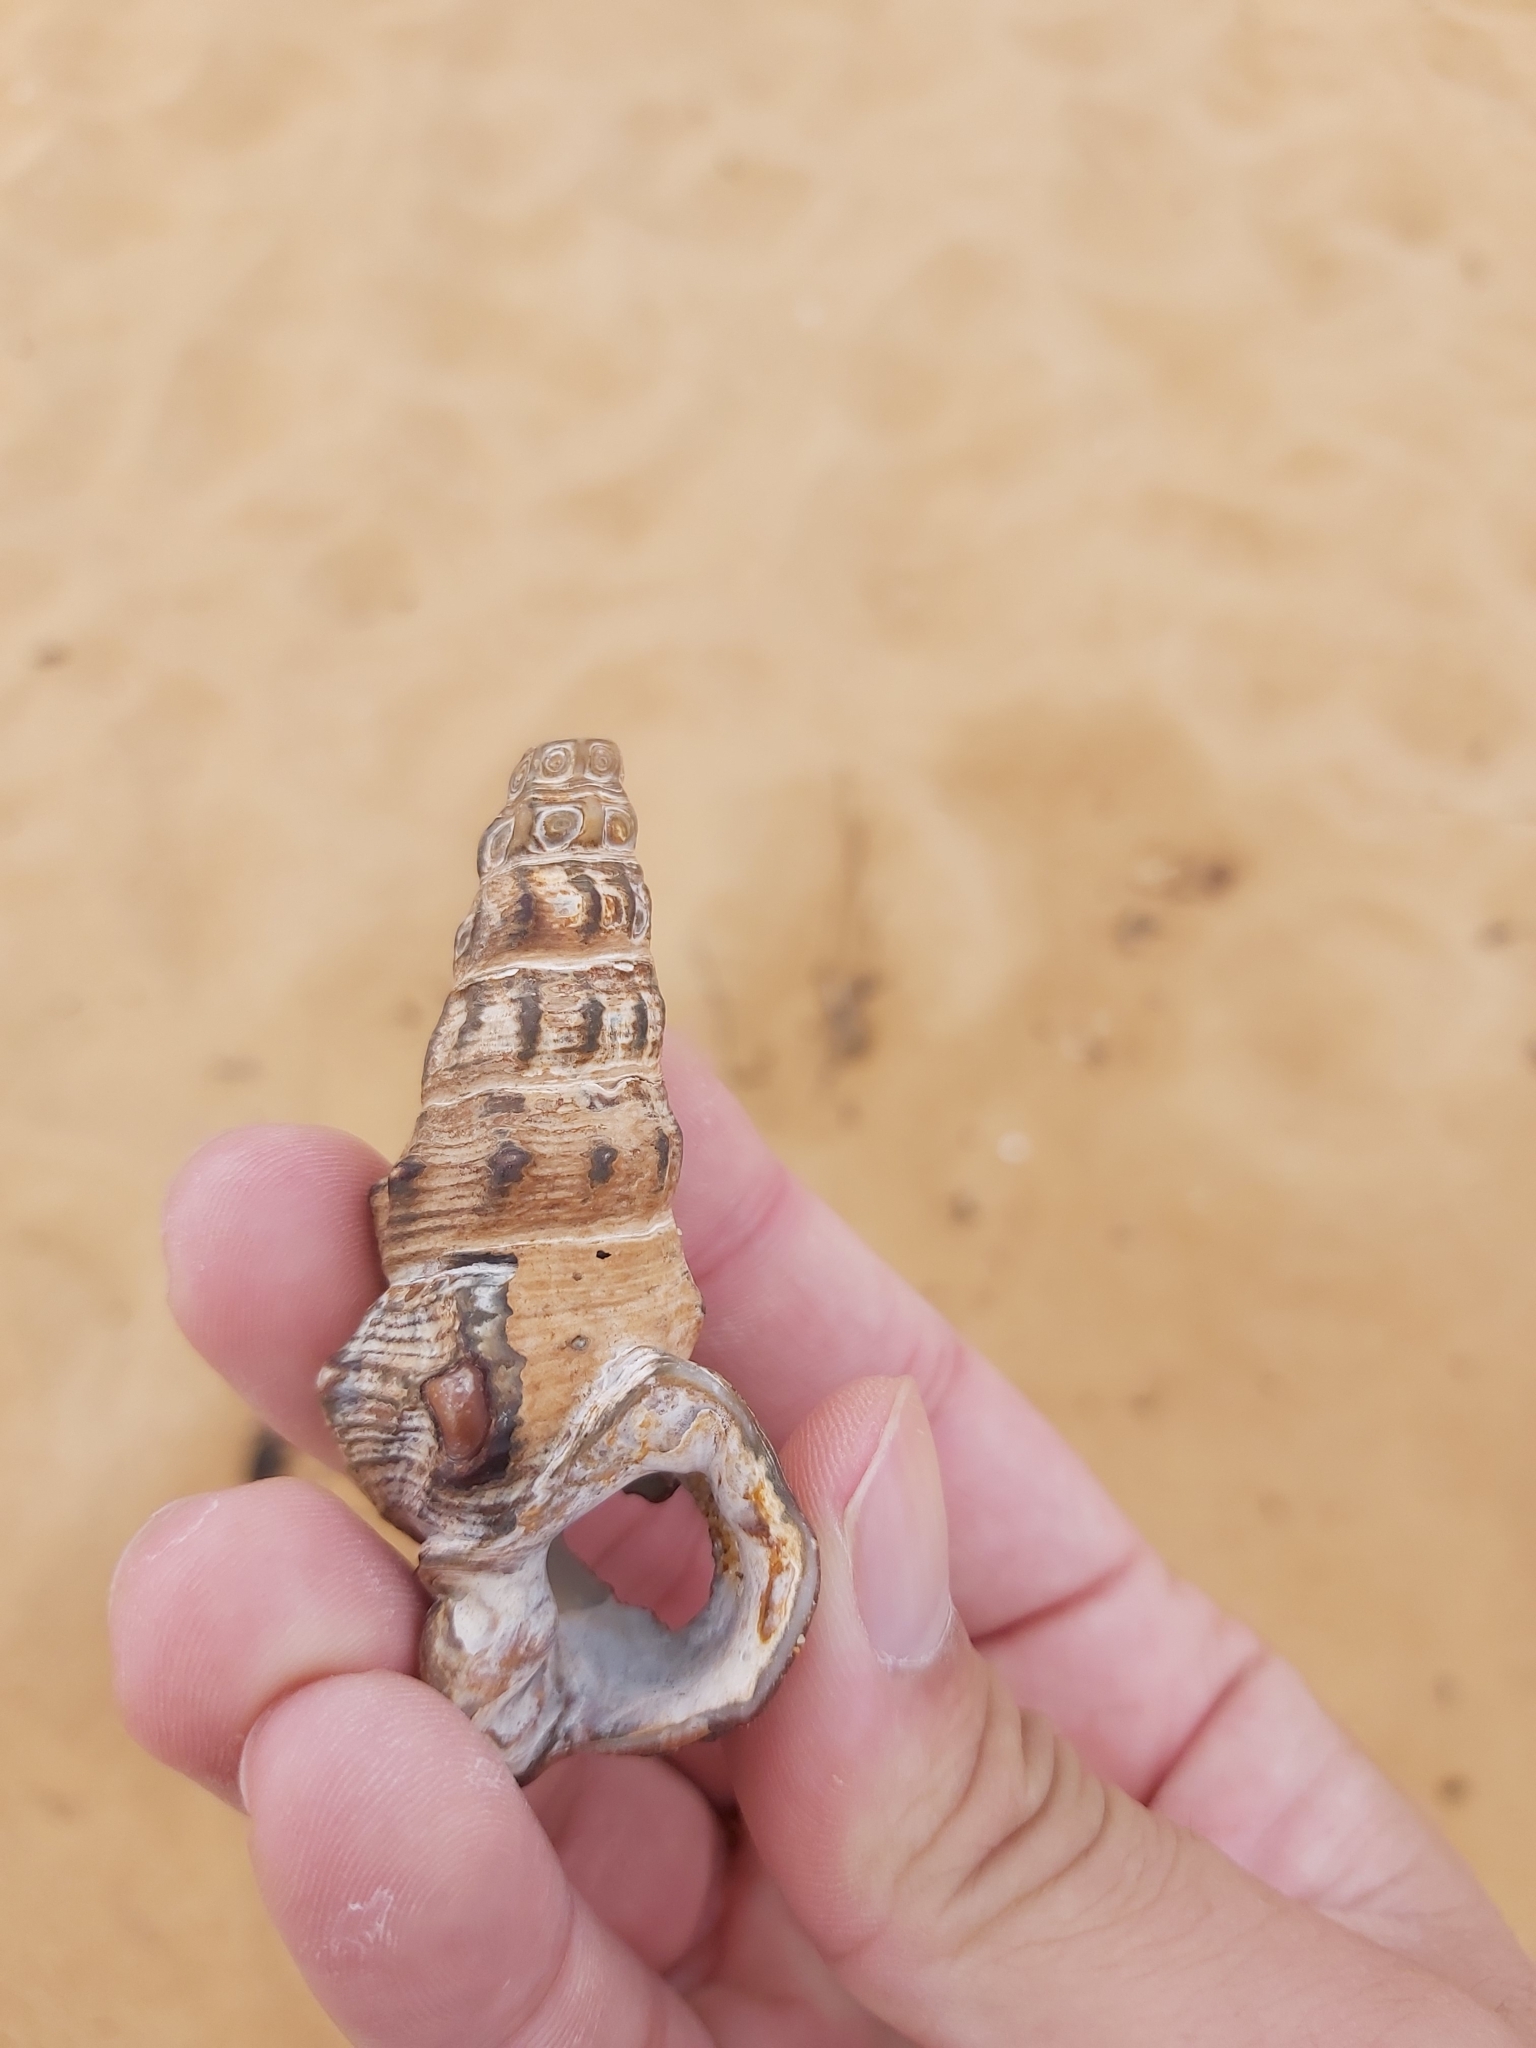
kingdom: Animalia
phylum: Mollusca
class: Gastropoda
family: Batillariidae
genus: Pyrazus
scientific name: Pyrazus ebeninus
